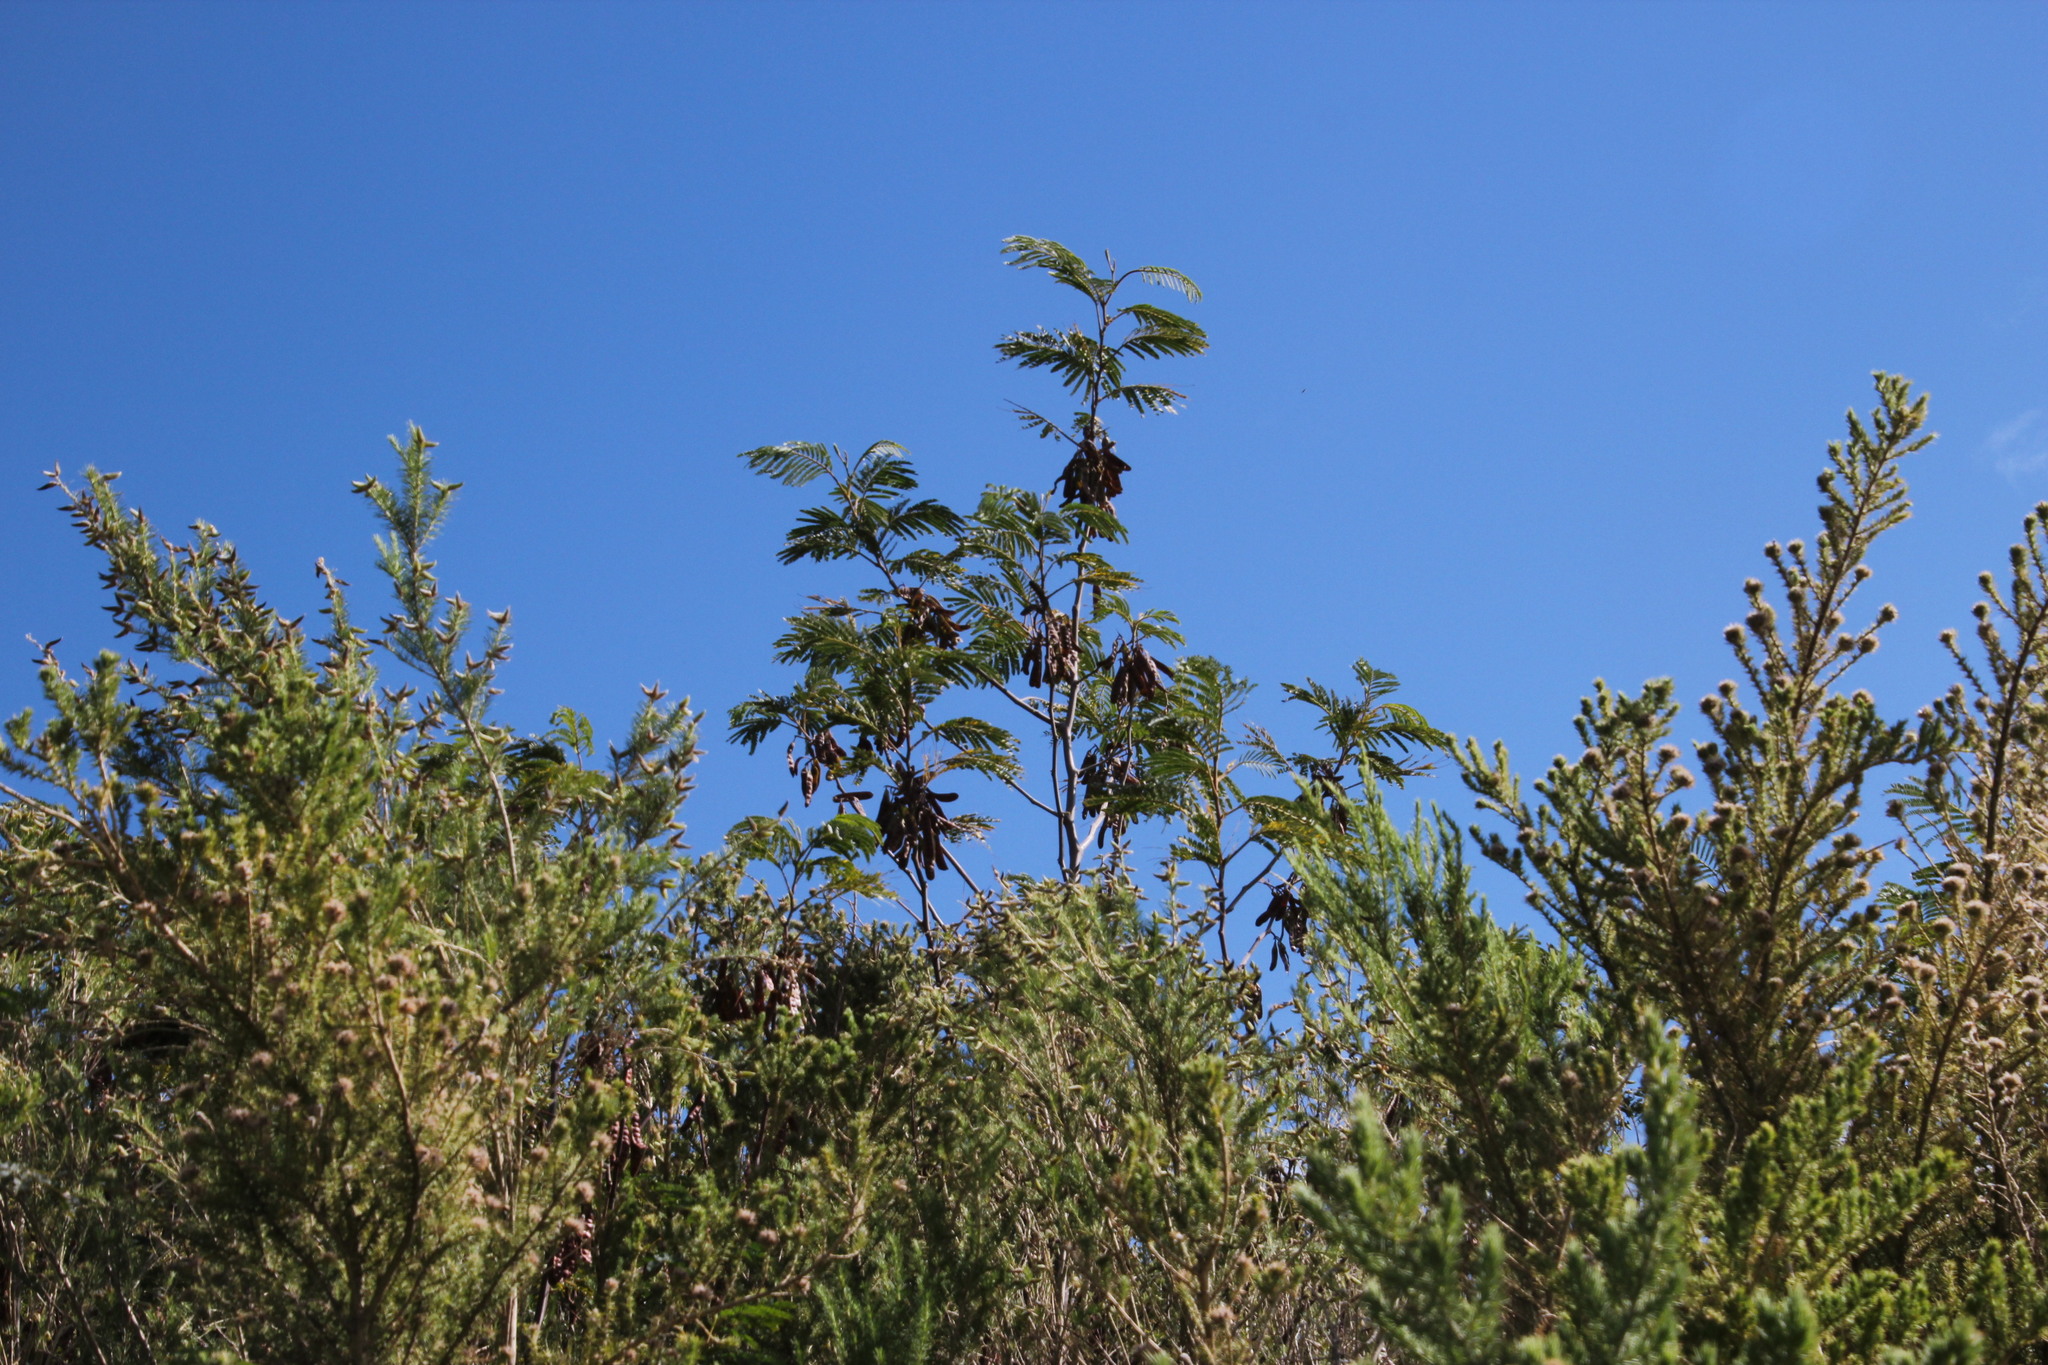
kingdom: Plantae
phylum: Tracheophyta
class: Magnoliopsida
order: Fabales
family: Fabaceae
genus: Paraserianthes
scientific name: Paraserianthes lophantha
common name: Plume albizia
